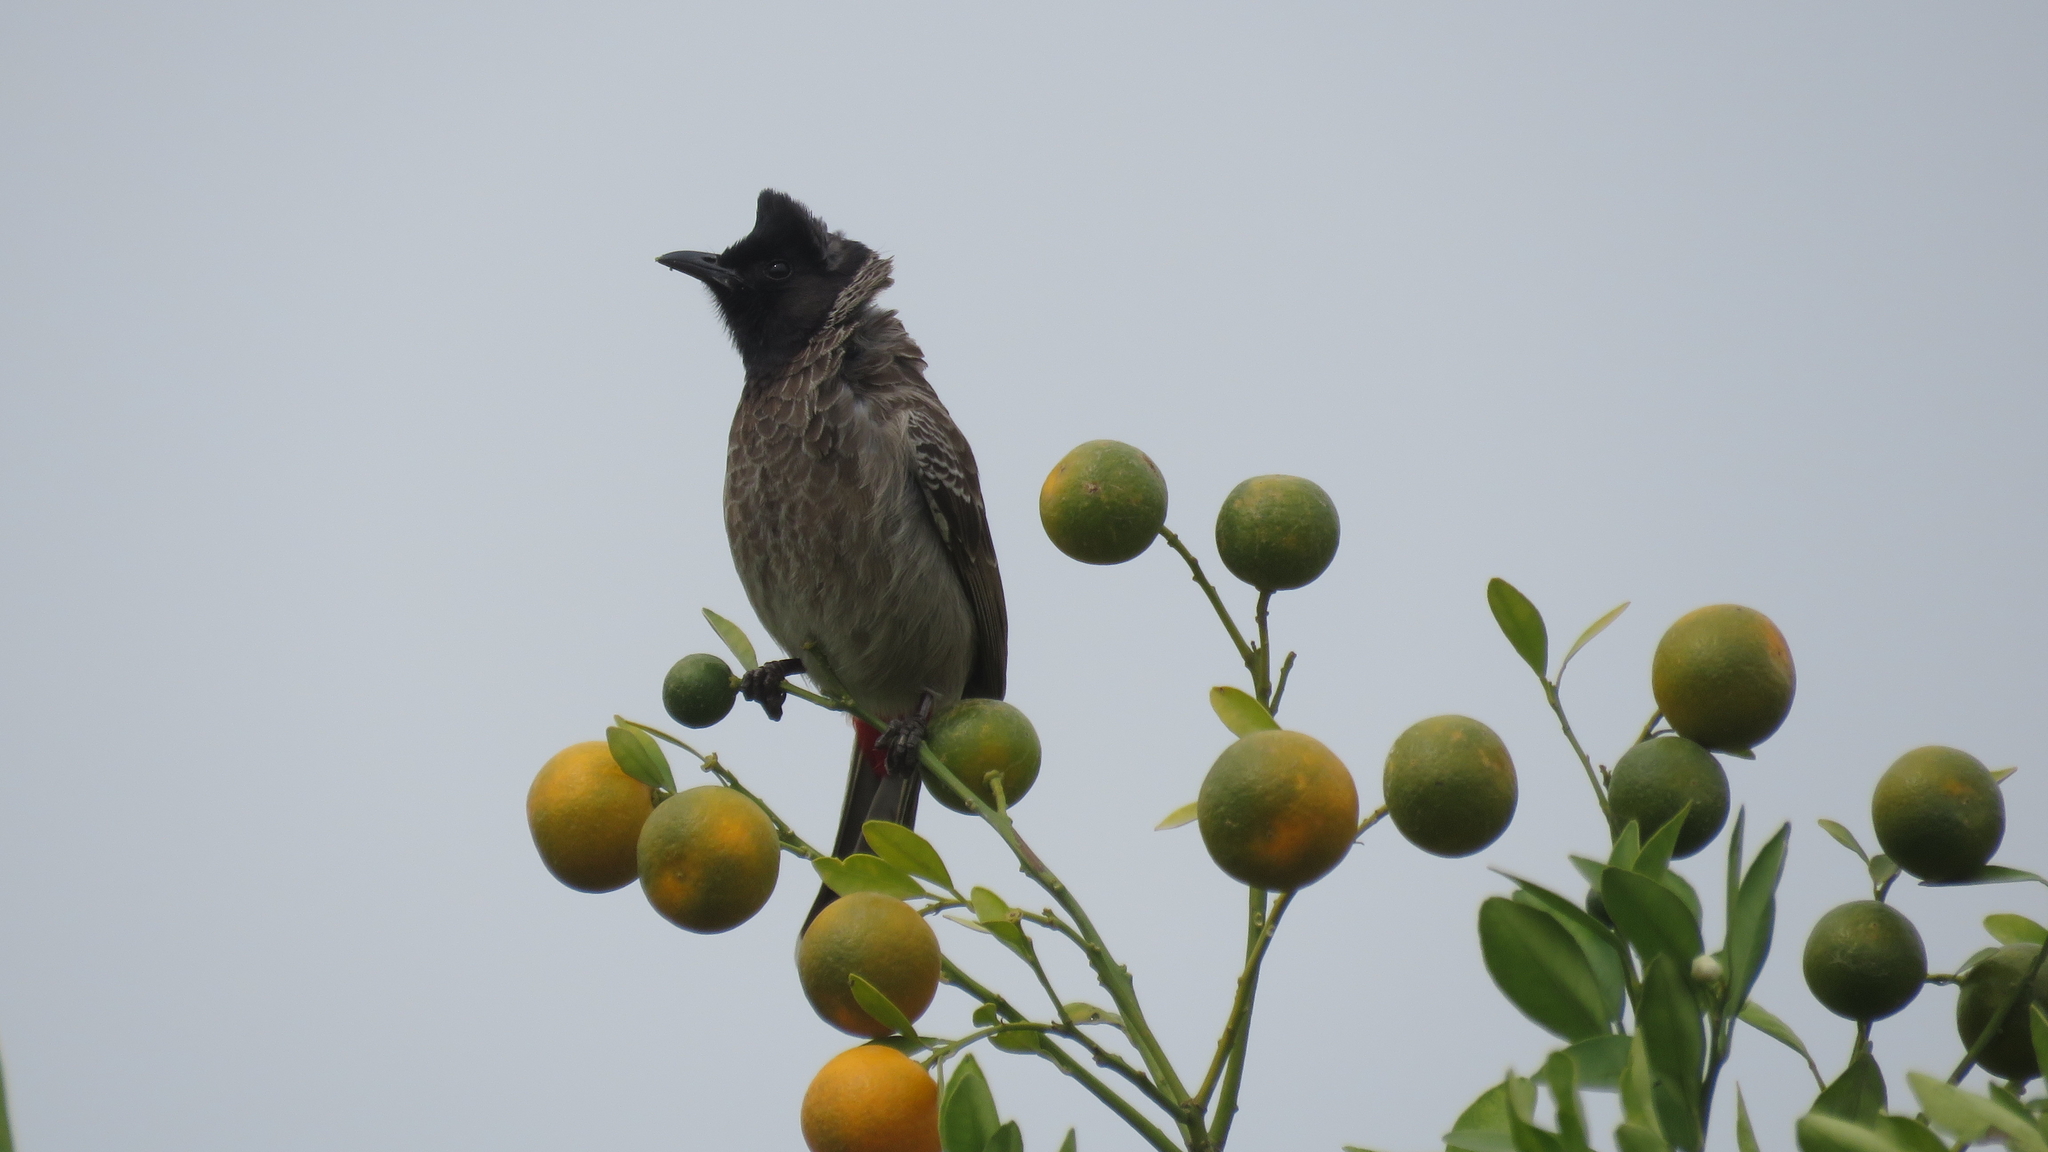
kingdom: Animalia
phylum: Chordata
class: Aves
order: Passeriformes
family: Pycnonotidae
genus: Pycnonotus
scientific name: Pycnonotus cafer
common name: Red-vented bulbul
